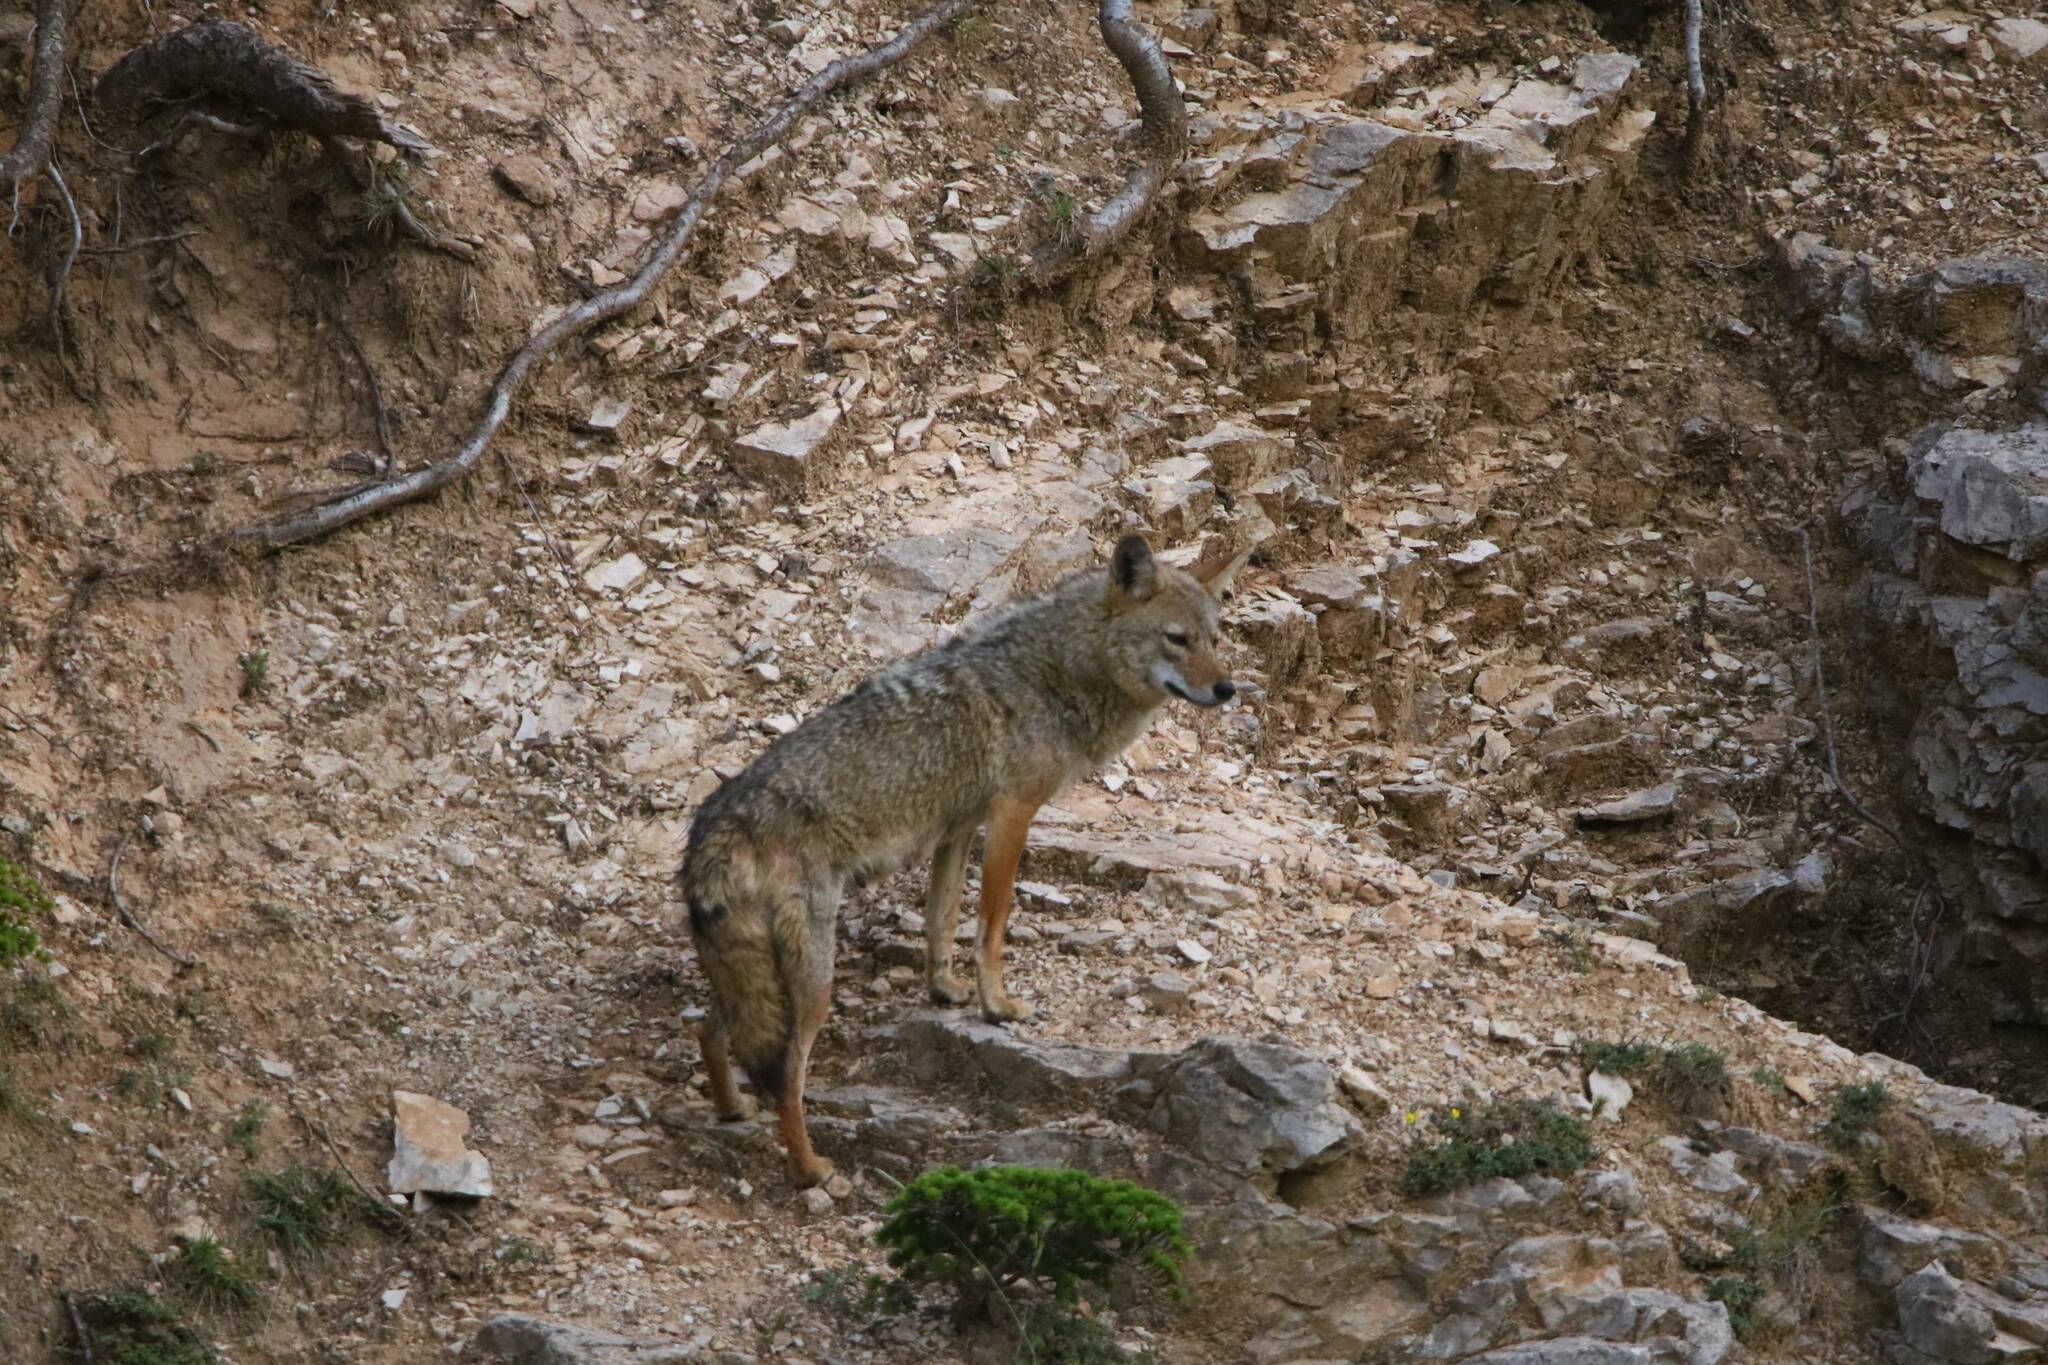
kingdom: Animalia
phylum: Chordata
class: Mammalia
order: Carnivora
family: Canidae
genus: Canis
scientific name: Canis lupaster
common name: African golden wolf
